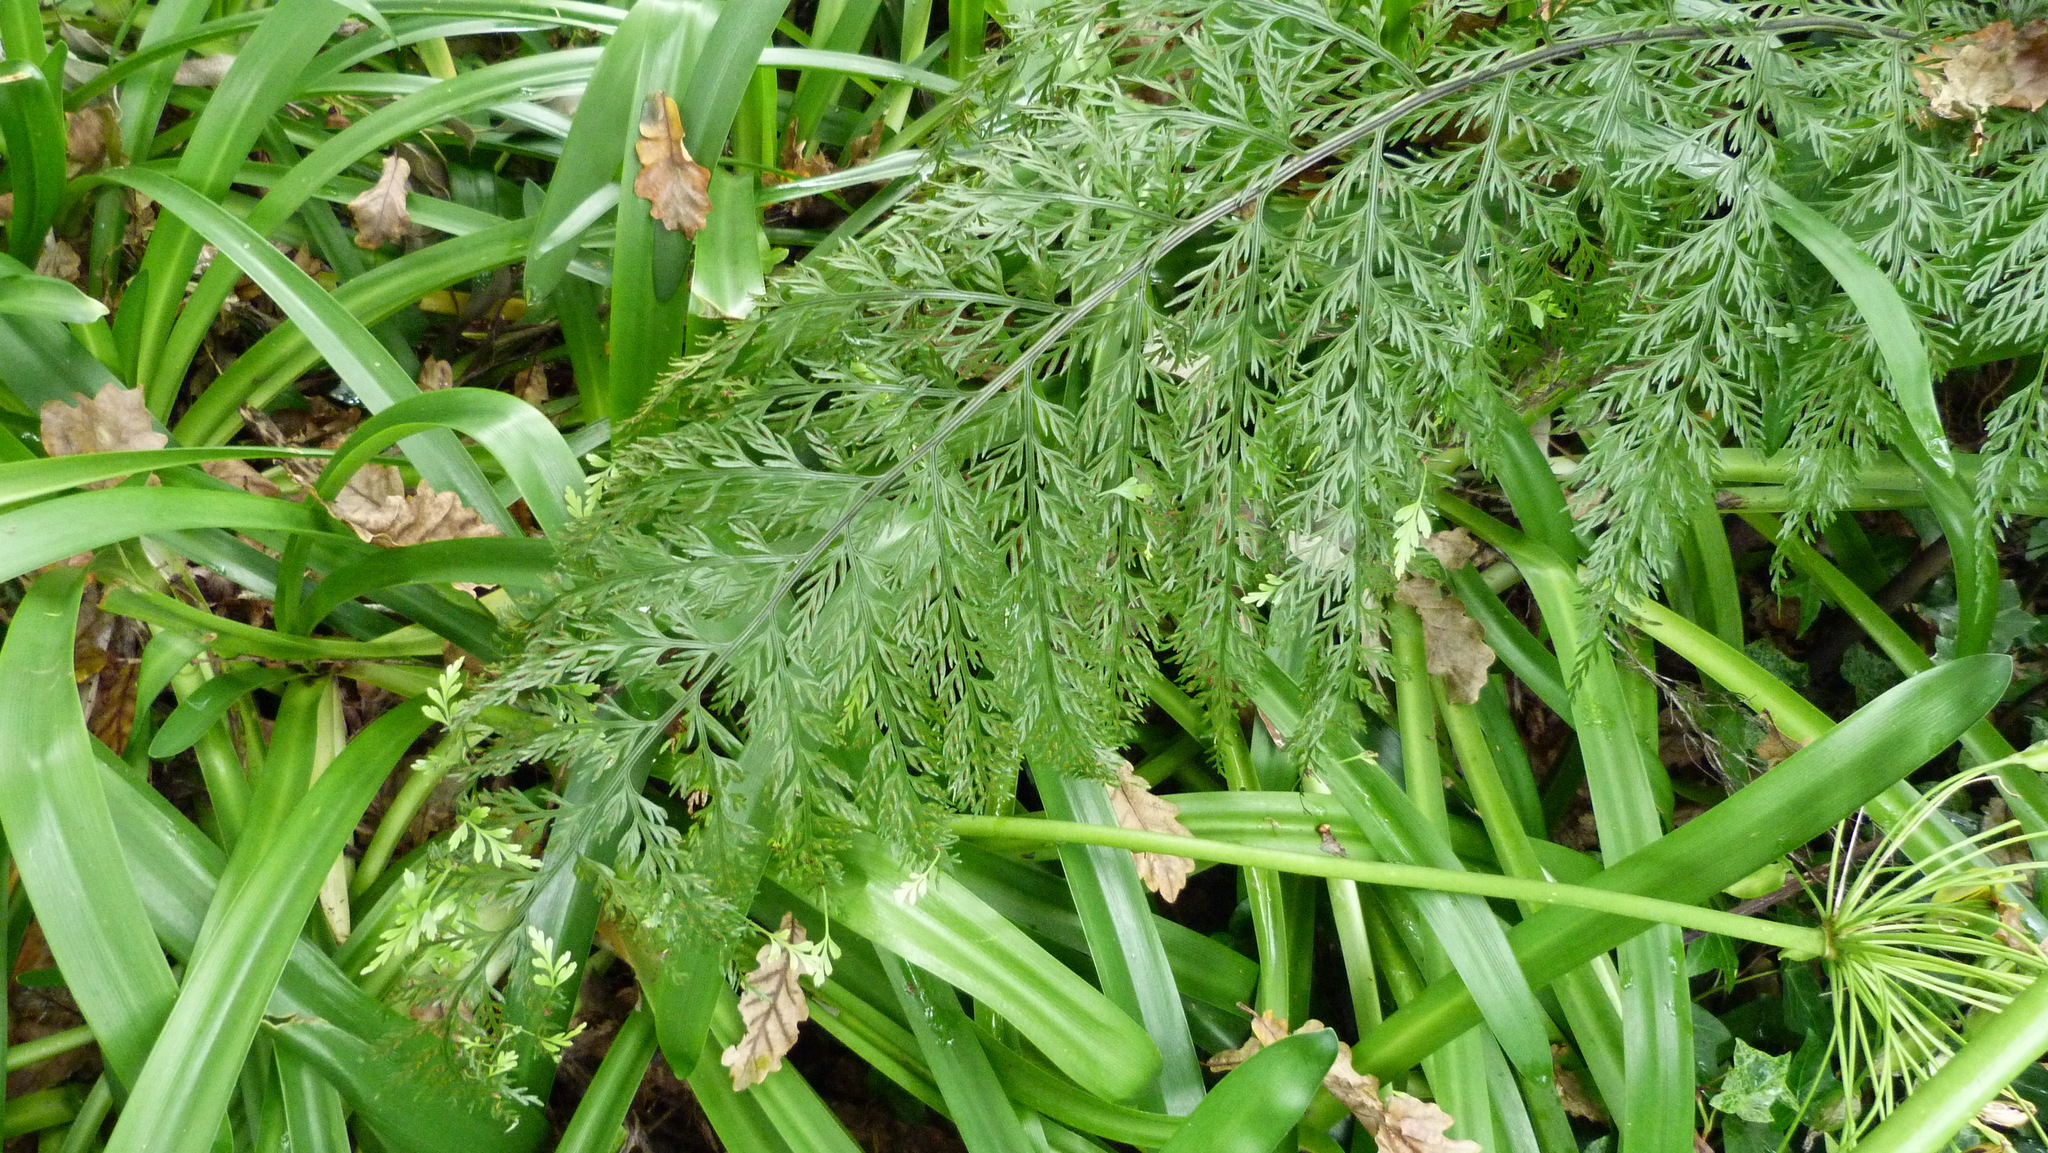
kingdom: Plantae
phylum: Tracheophyta
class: Polypodiopsida
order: Polypodiales
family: Aspleniaceae
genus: Asplenium
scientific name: Asplenium lucrosum
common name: False hen-and-chickens fern
